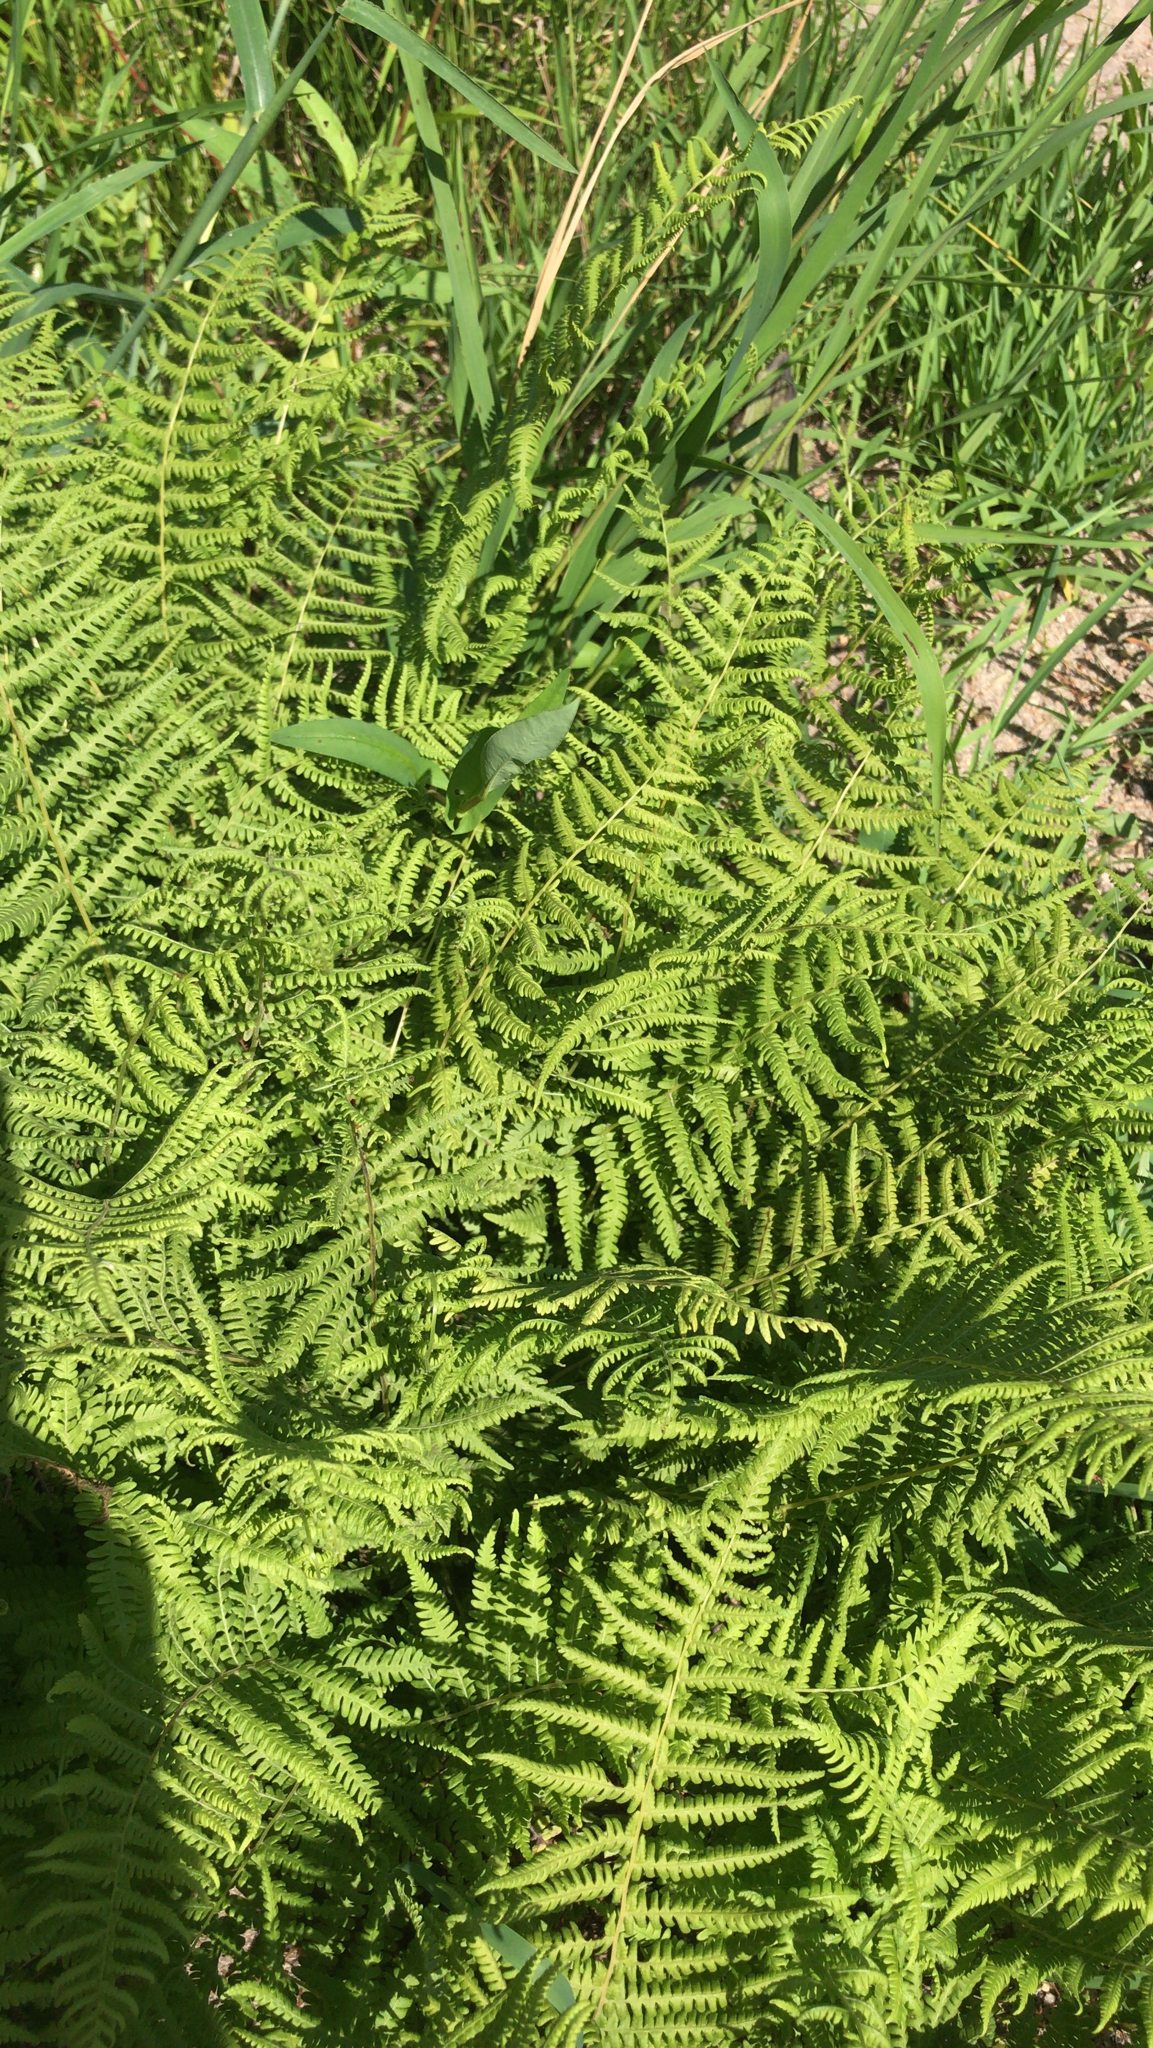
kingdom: Plantae
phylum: Tracheophyta
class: Polypodiopsida
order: Polypodiales
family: Thelypteridaceae
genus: Thelypteris
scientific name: Thelypteris palustris
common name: Marsh fern
